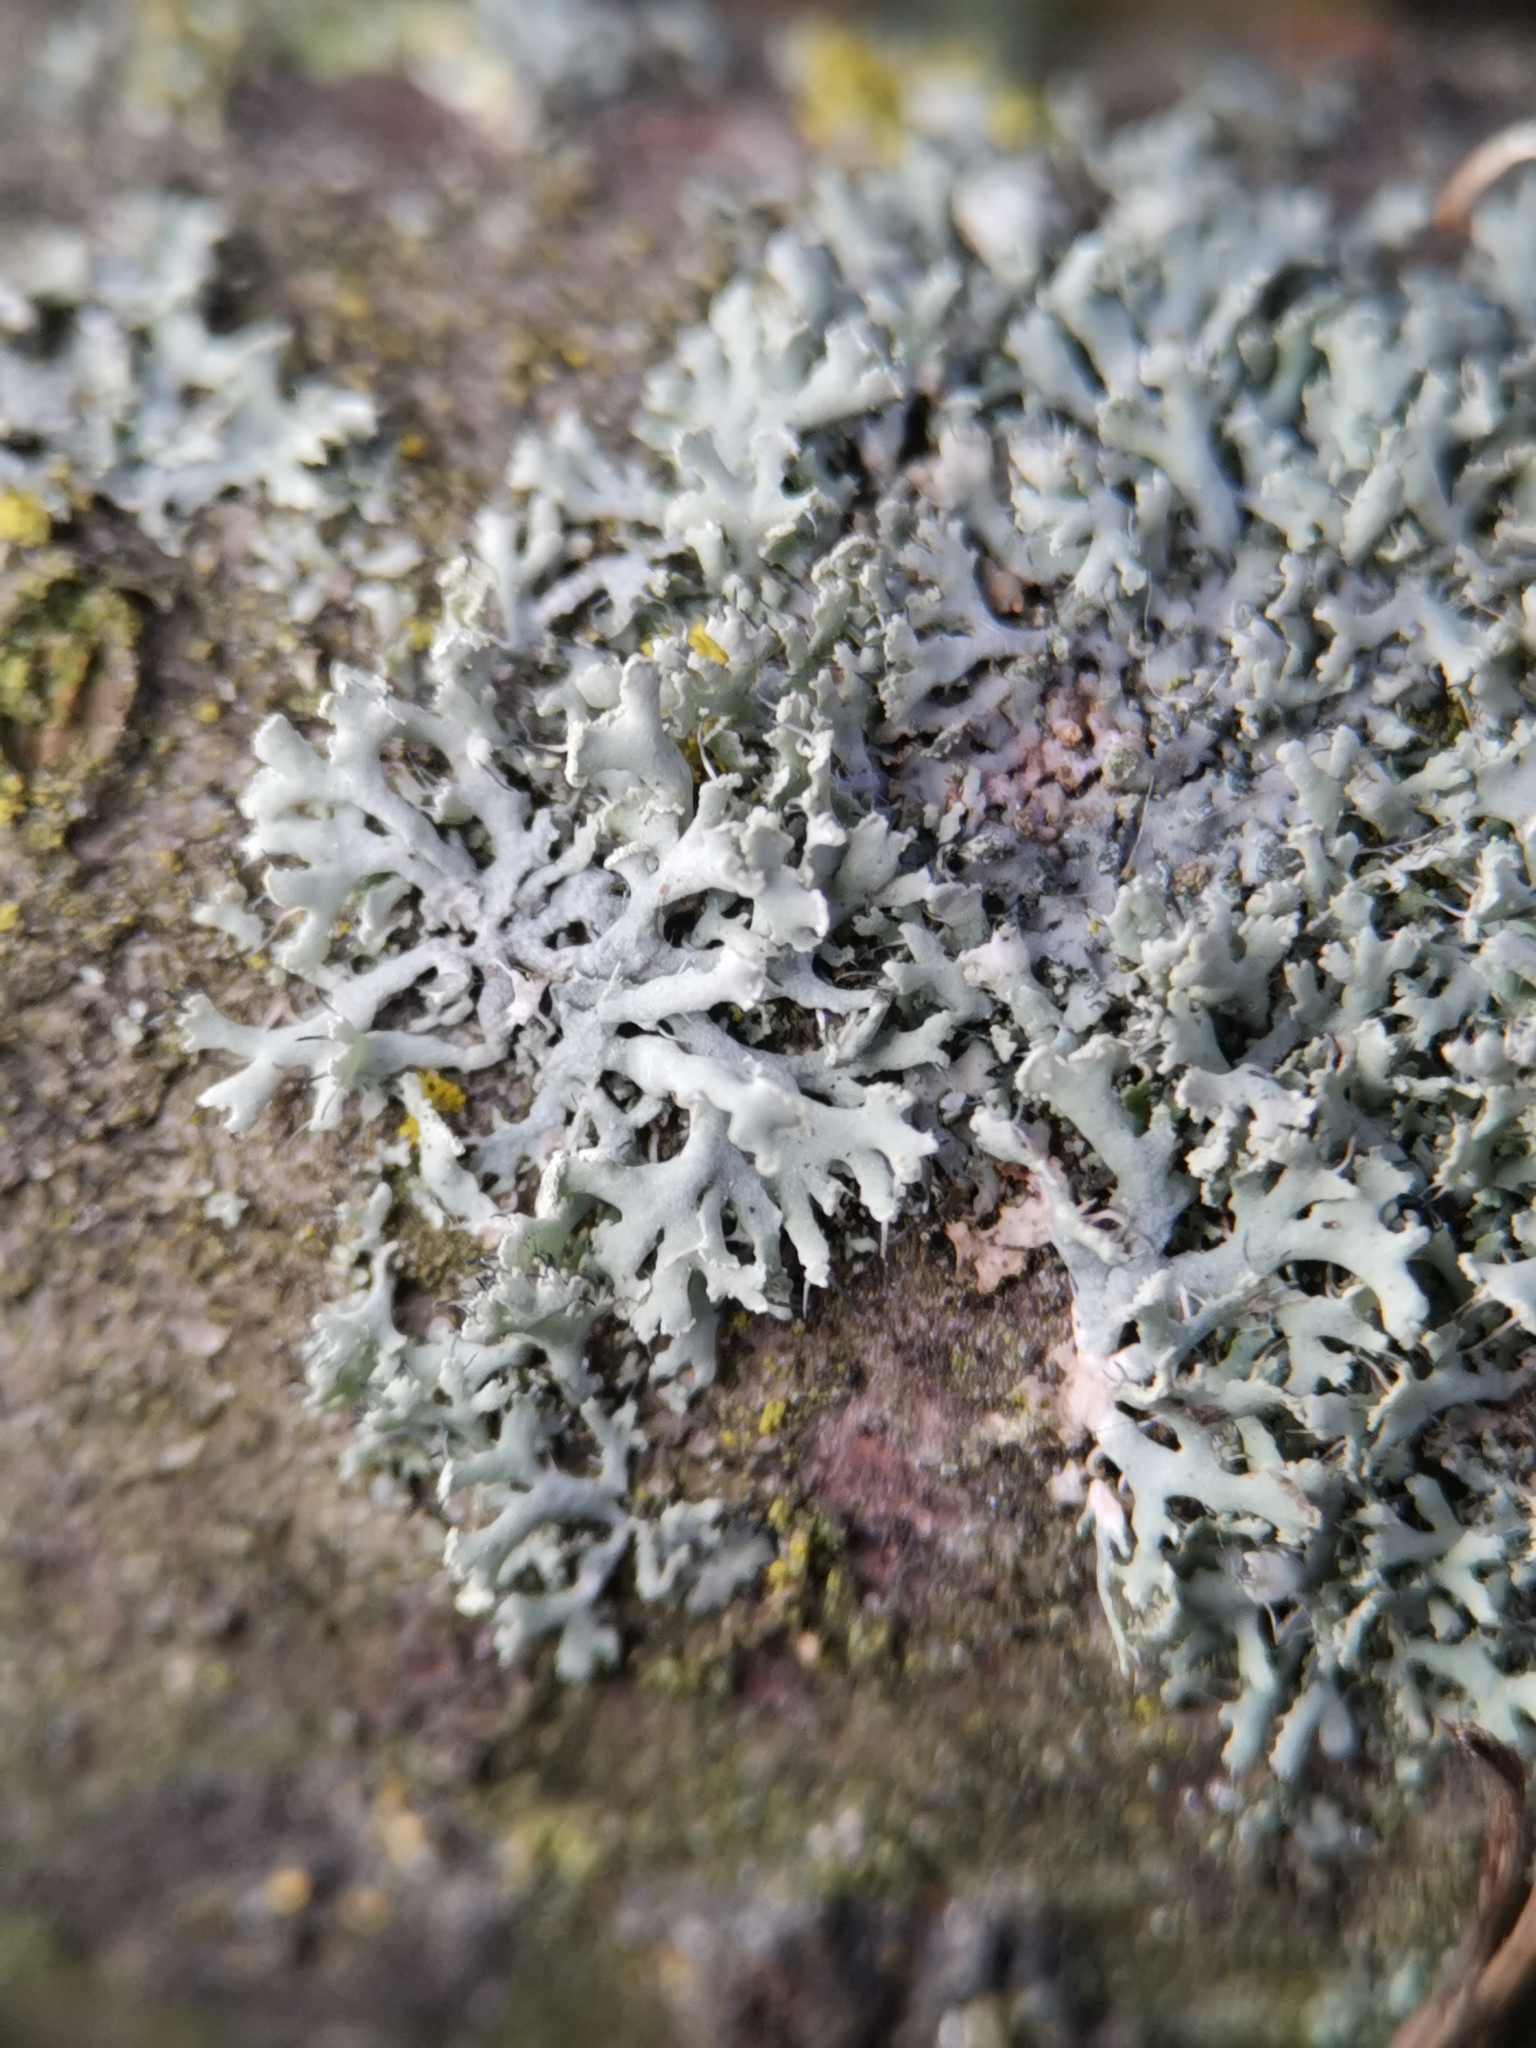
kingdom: Fungi
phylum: Ascomycota
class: Lecanoromycetes
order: Caliciales
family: Physciaceae
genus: Physcia
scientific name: Physcia tenella
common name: Fringed rosette lichen
